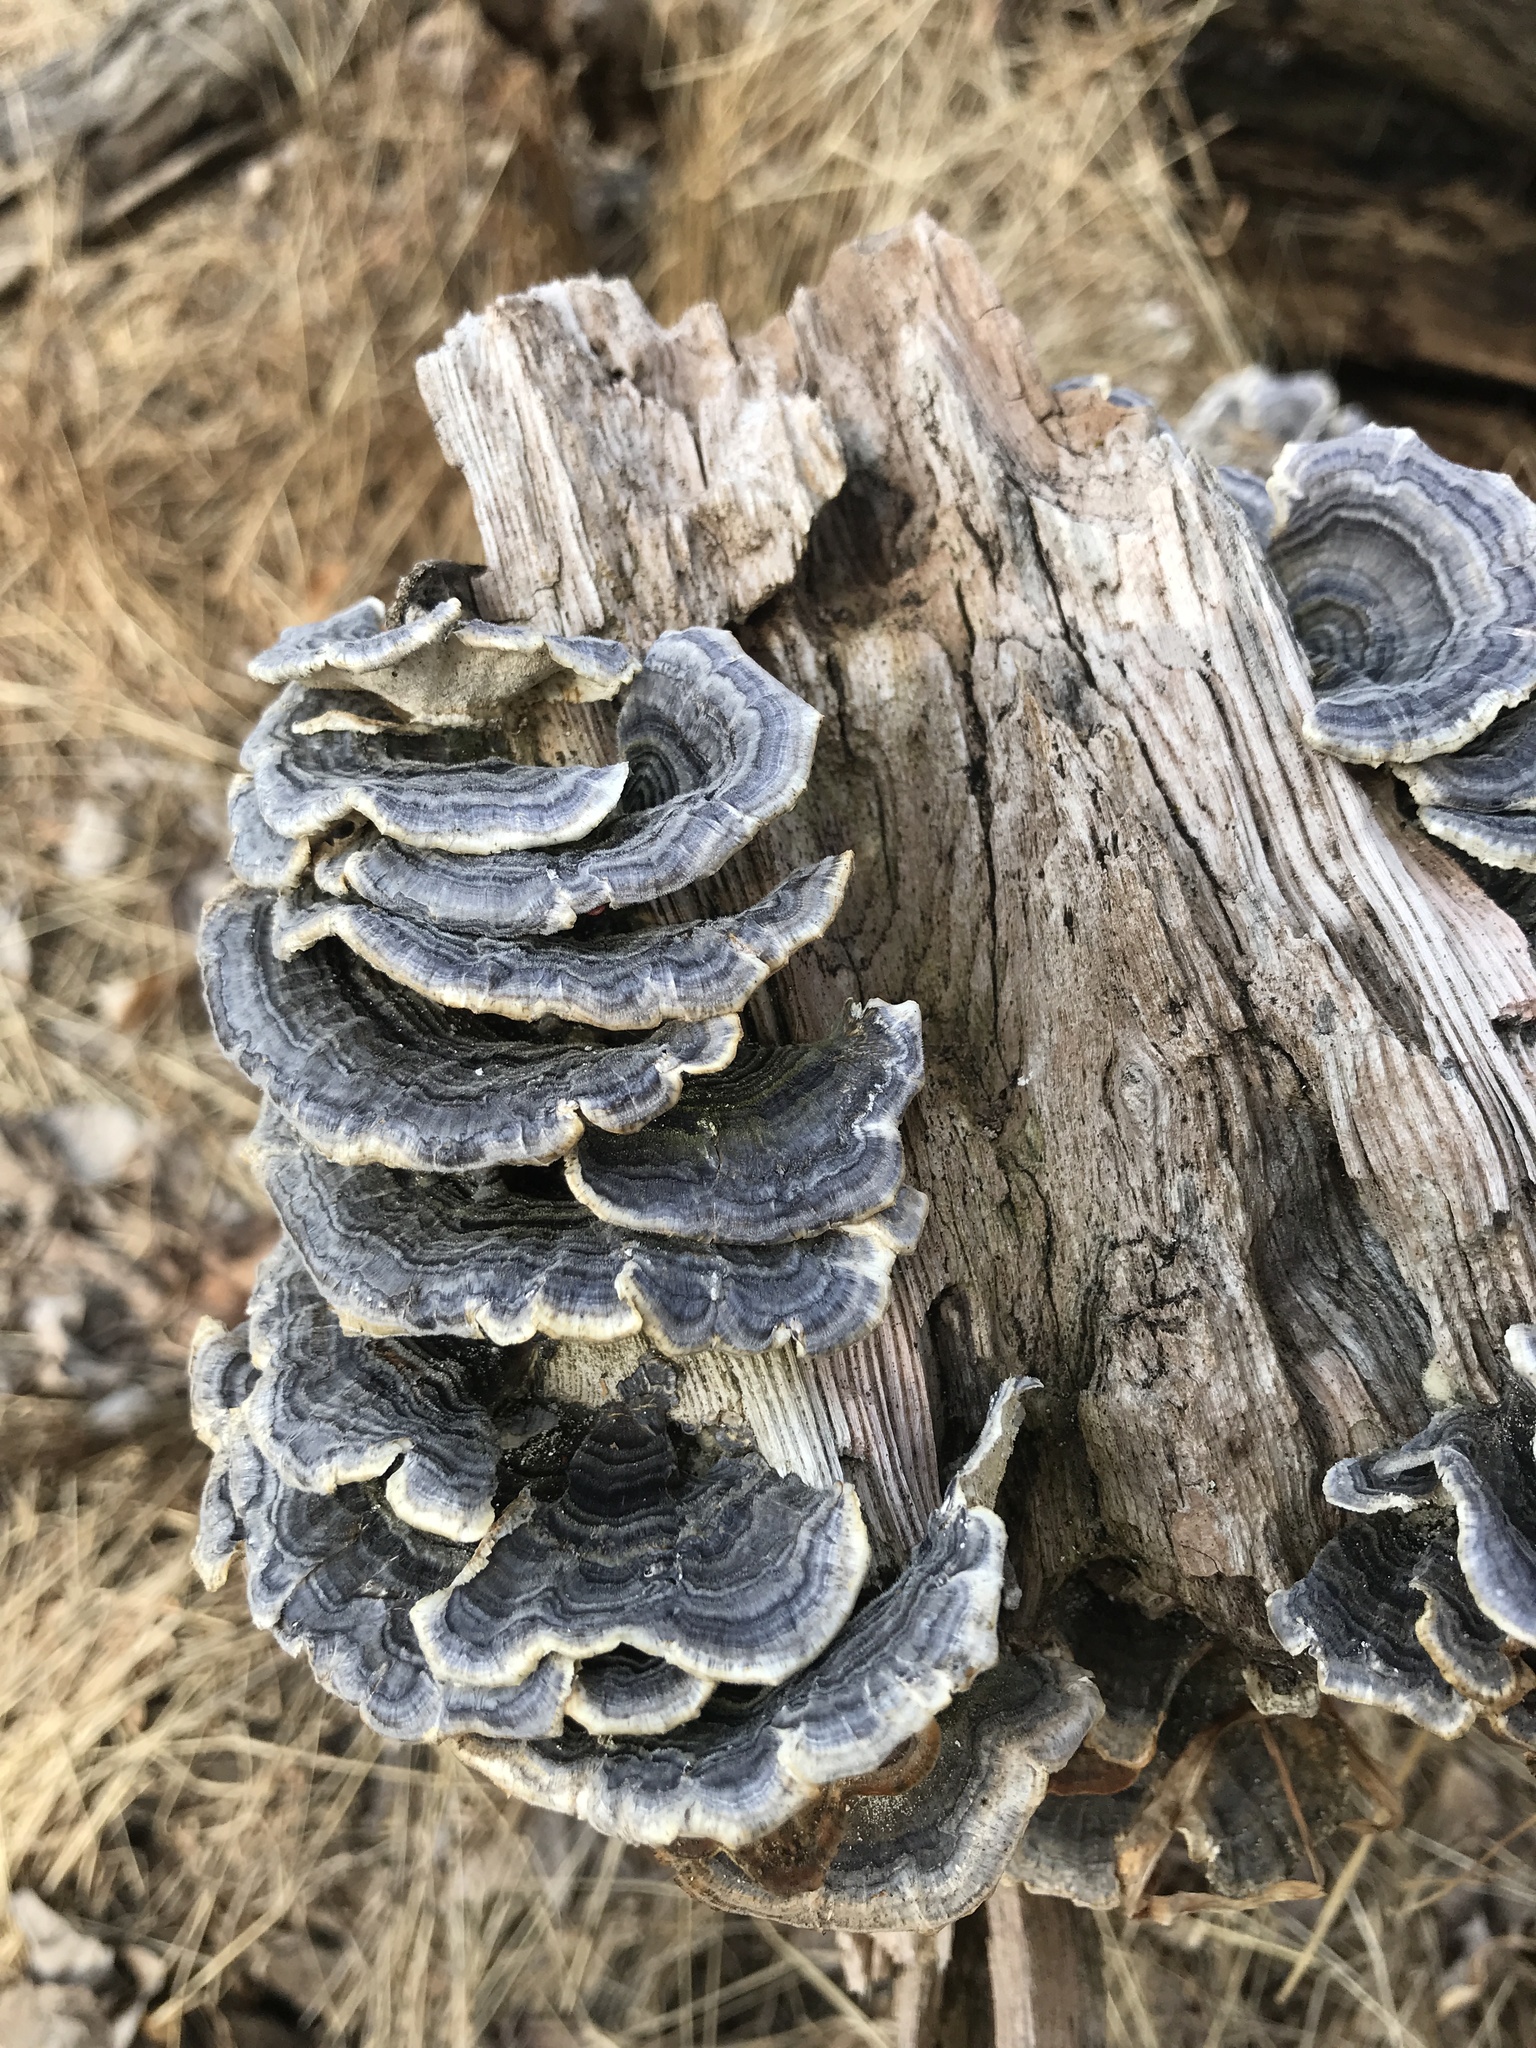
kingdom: Fungi
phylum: Basidiomycota
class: Agaricomycetes
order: Polyporales
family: Polyporaceae
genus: Trametes
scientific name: Trametes versicolor
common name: Turkeytail
